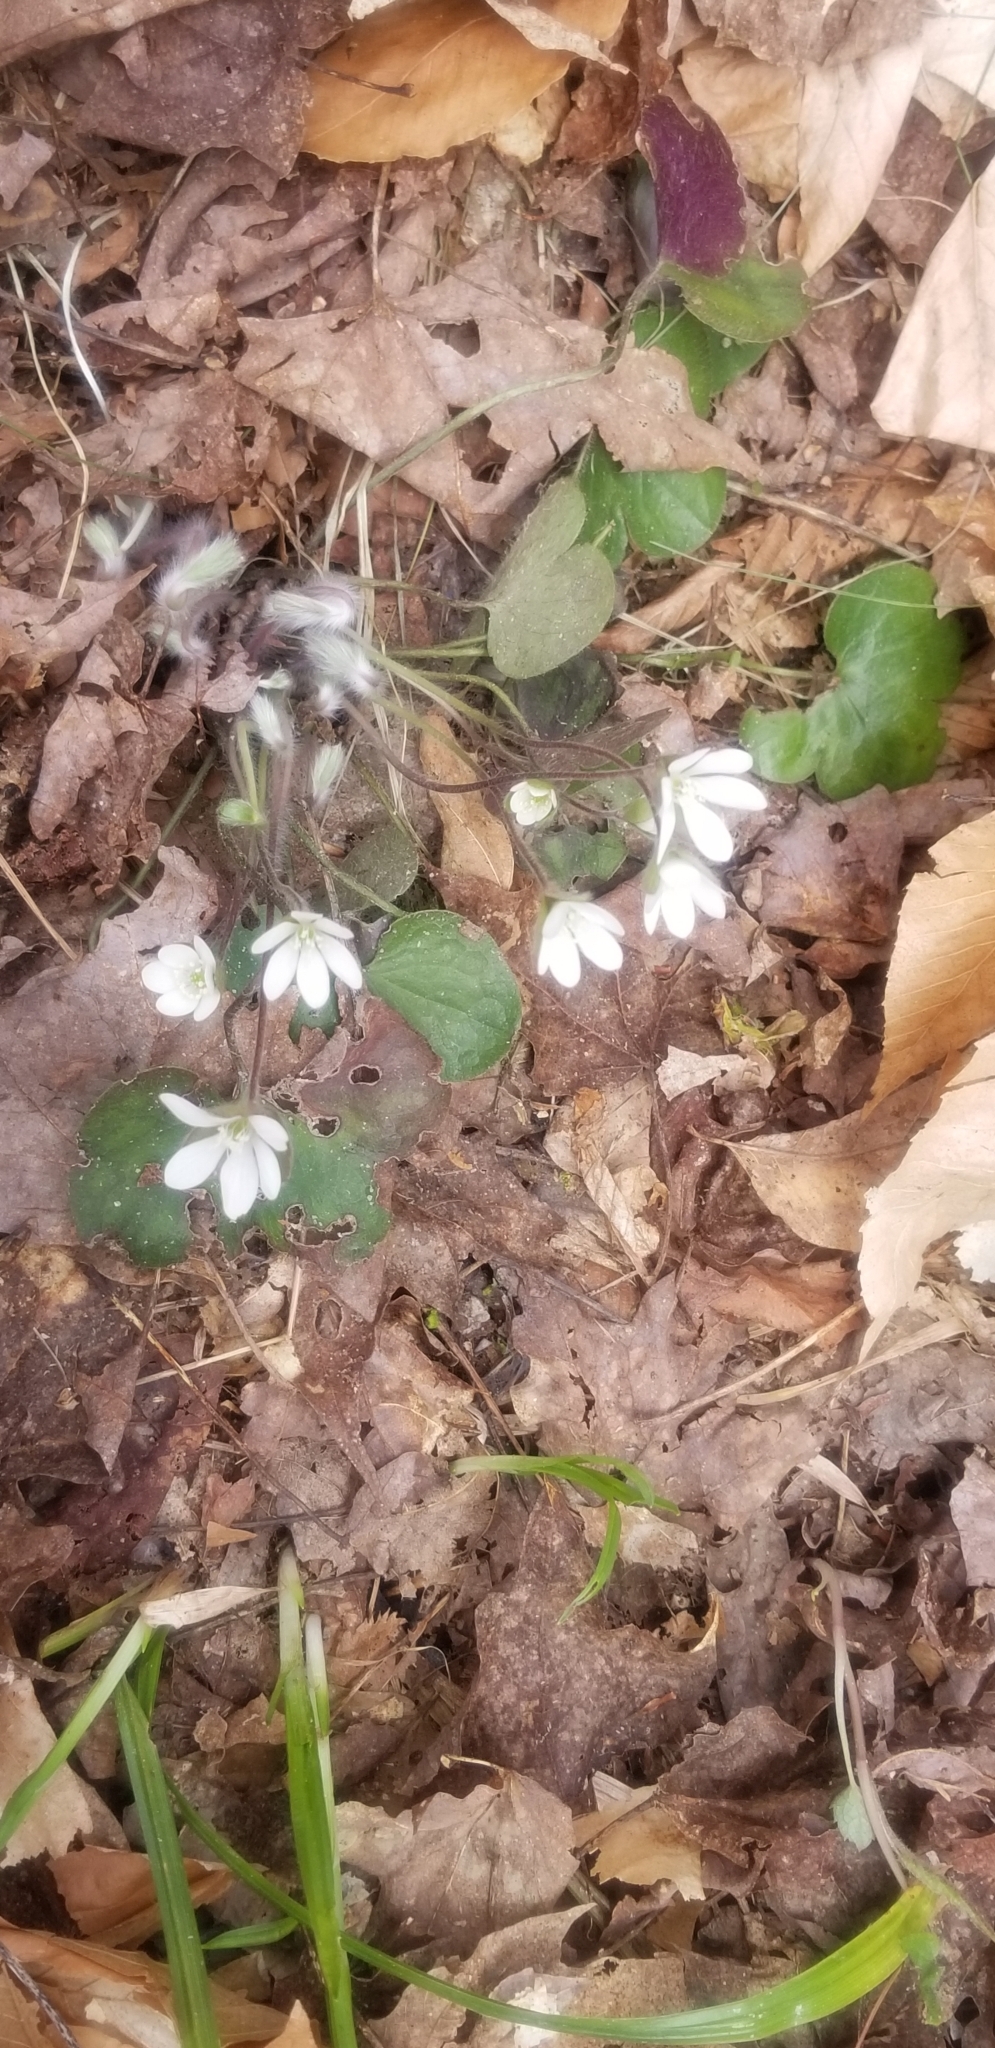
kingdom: Plantae
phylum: Tracheophyta
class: Magnoliopsida
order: Ranunculales
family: Ranunculaceae
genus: Hepatica
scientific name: Hepatica americana
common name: American hepatica
